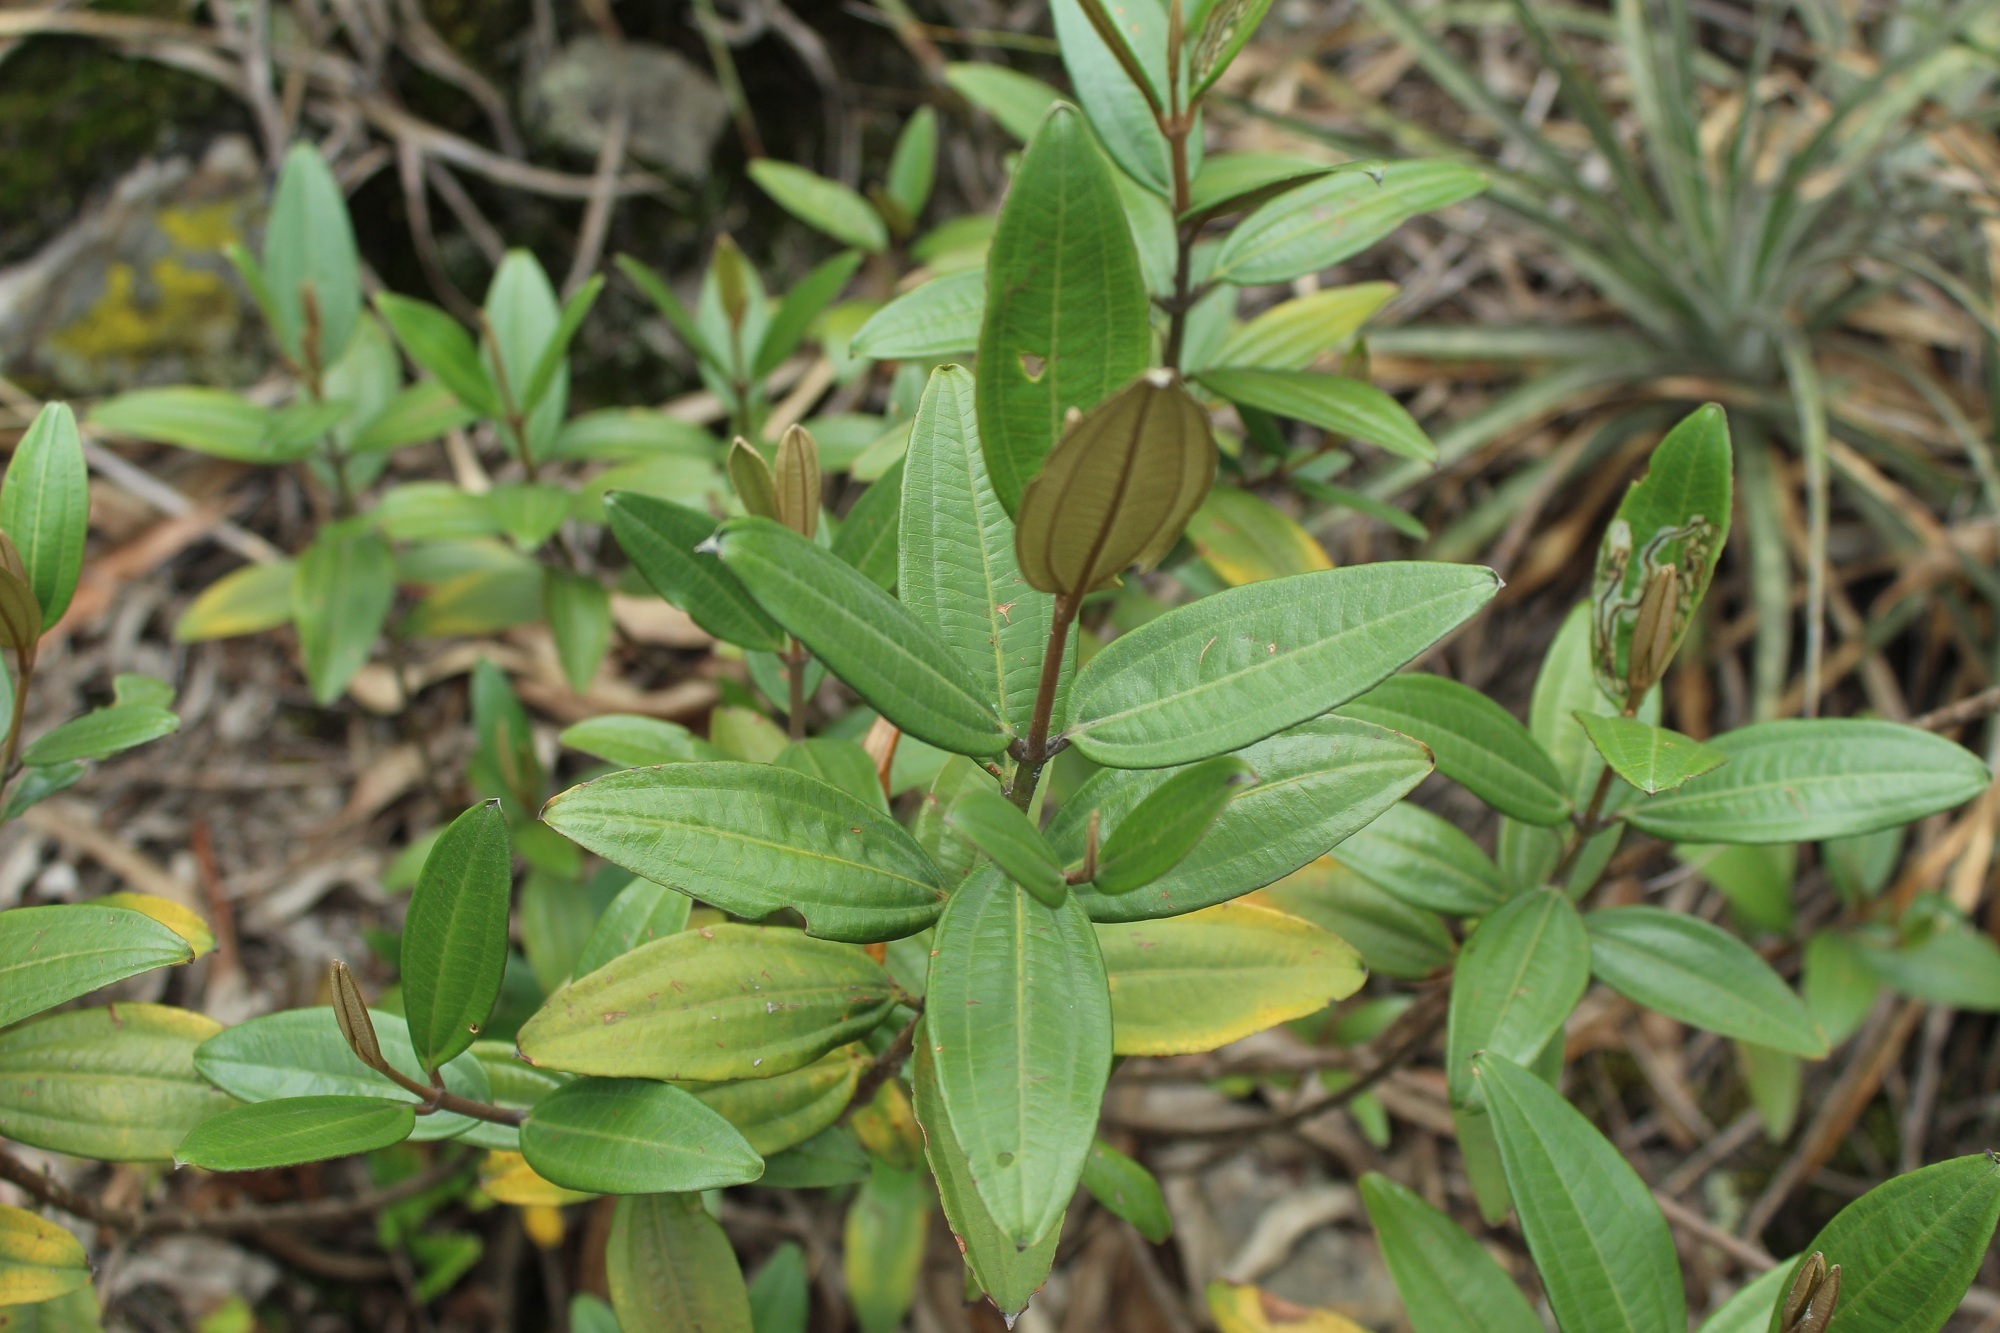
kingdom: Plantae
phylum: Tracheophyta
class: Magnoliopsida
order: Myrtales
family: Melastomataceae
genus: Miconia
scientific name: Miconia squamulosa
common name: Squamulose maya
